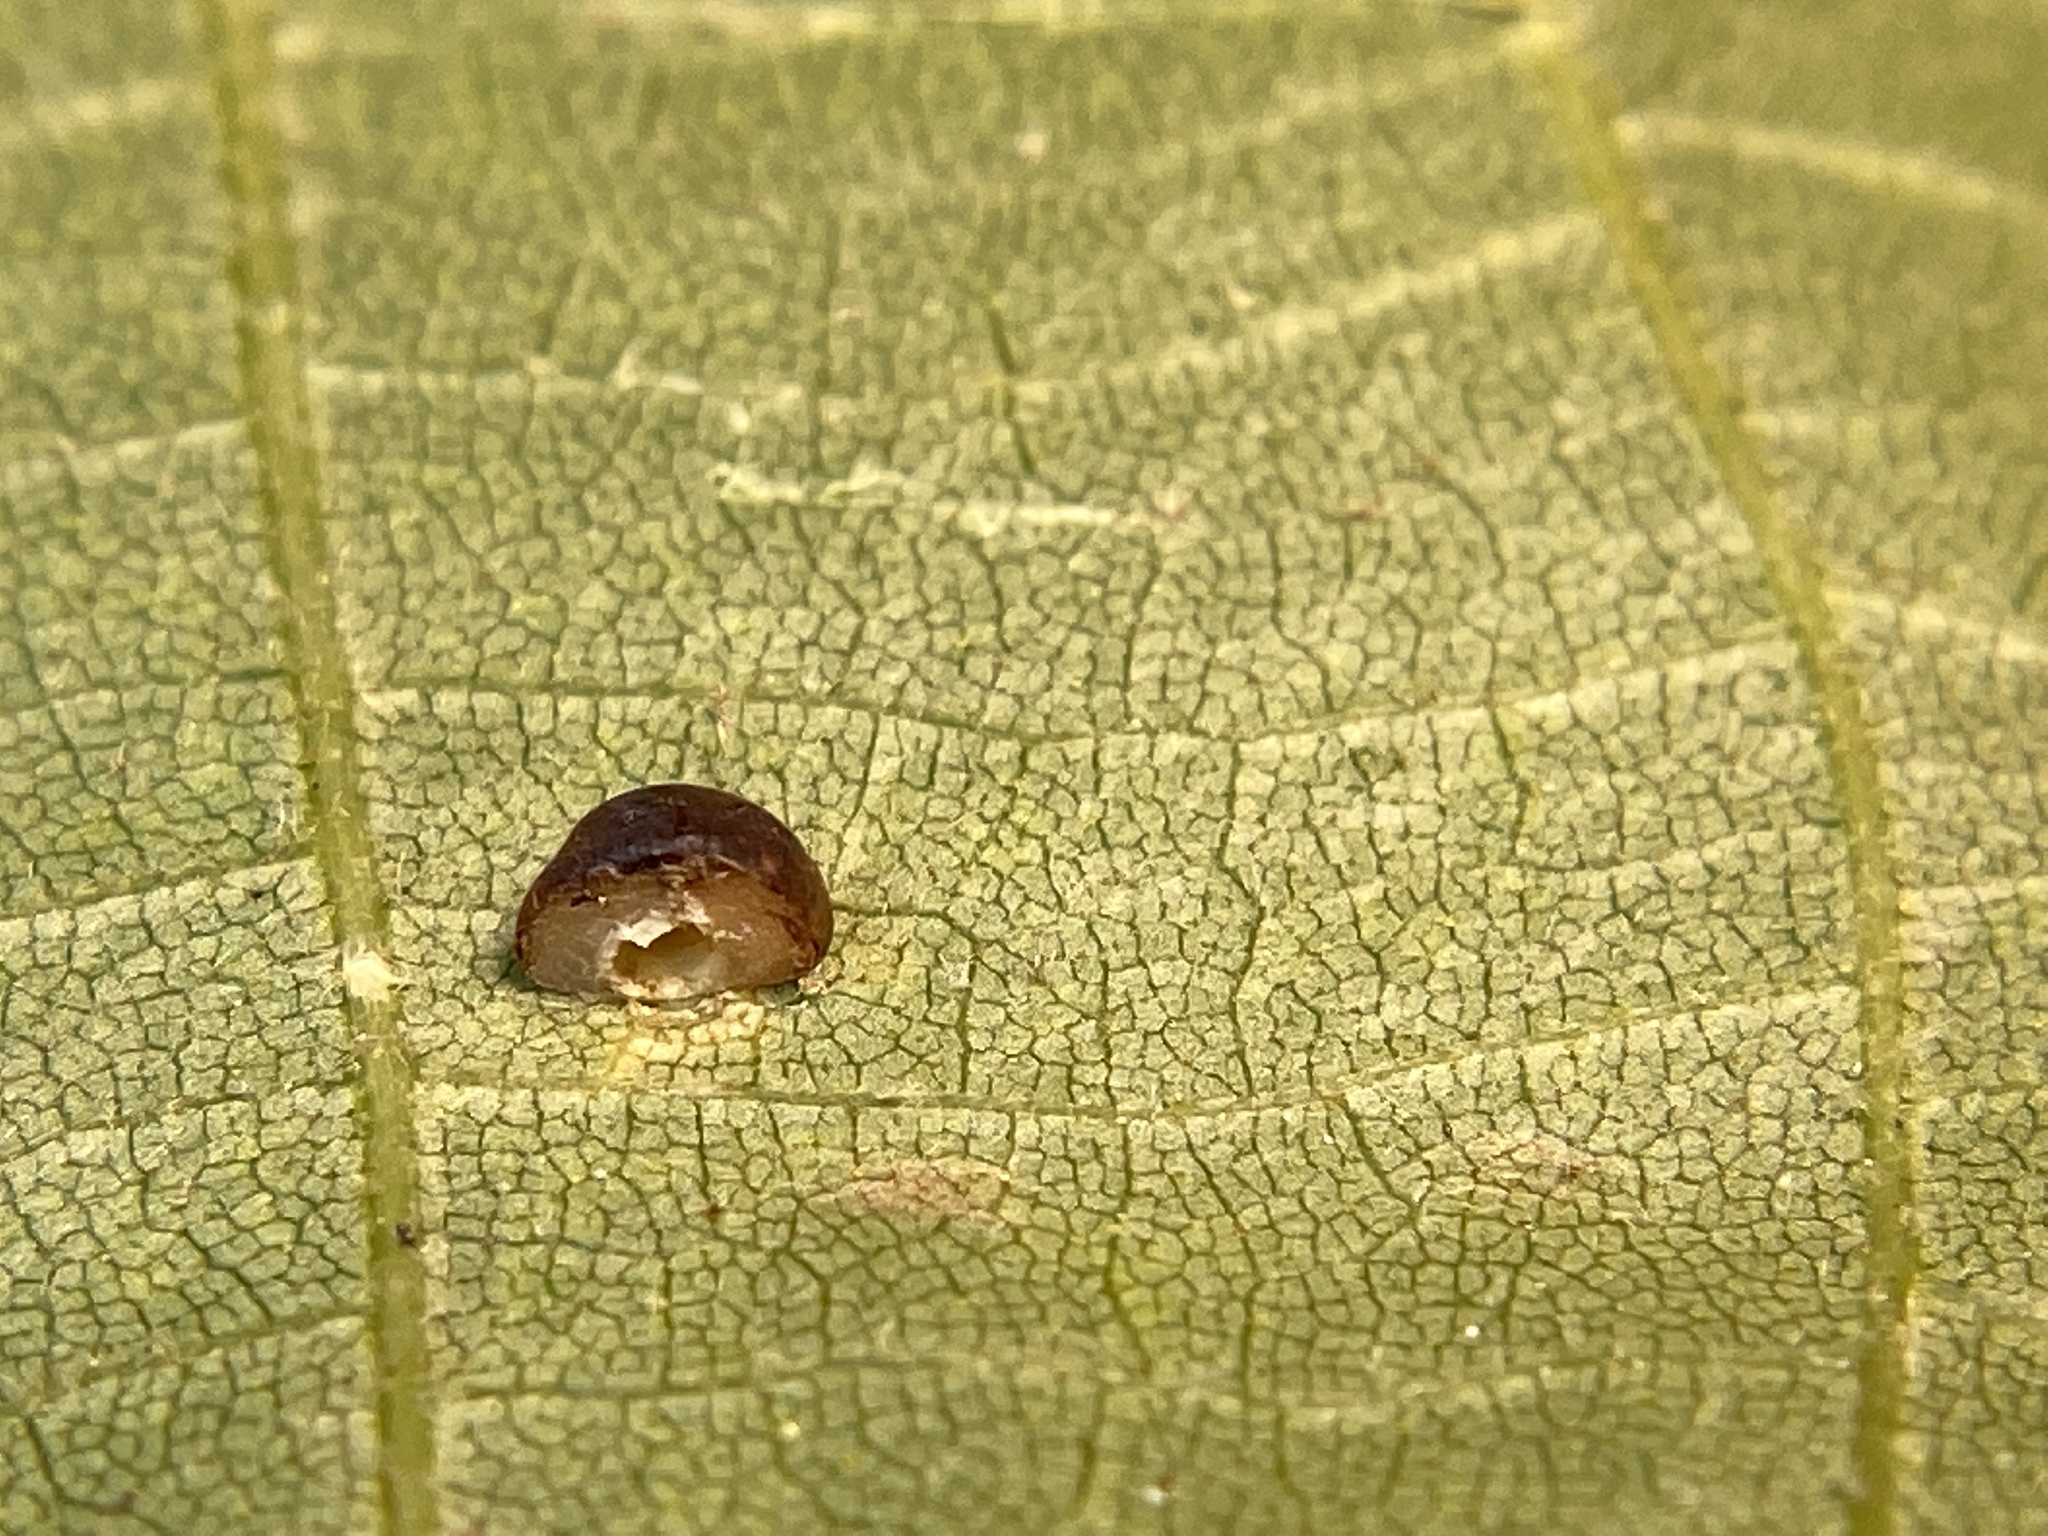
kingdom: Animalia
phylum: Arthropoda
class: Insecta
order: Diptera
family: Cecidomyiidae
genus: Caryomyia
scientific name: Caryomyia sanguinolenta
